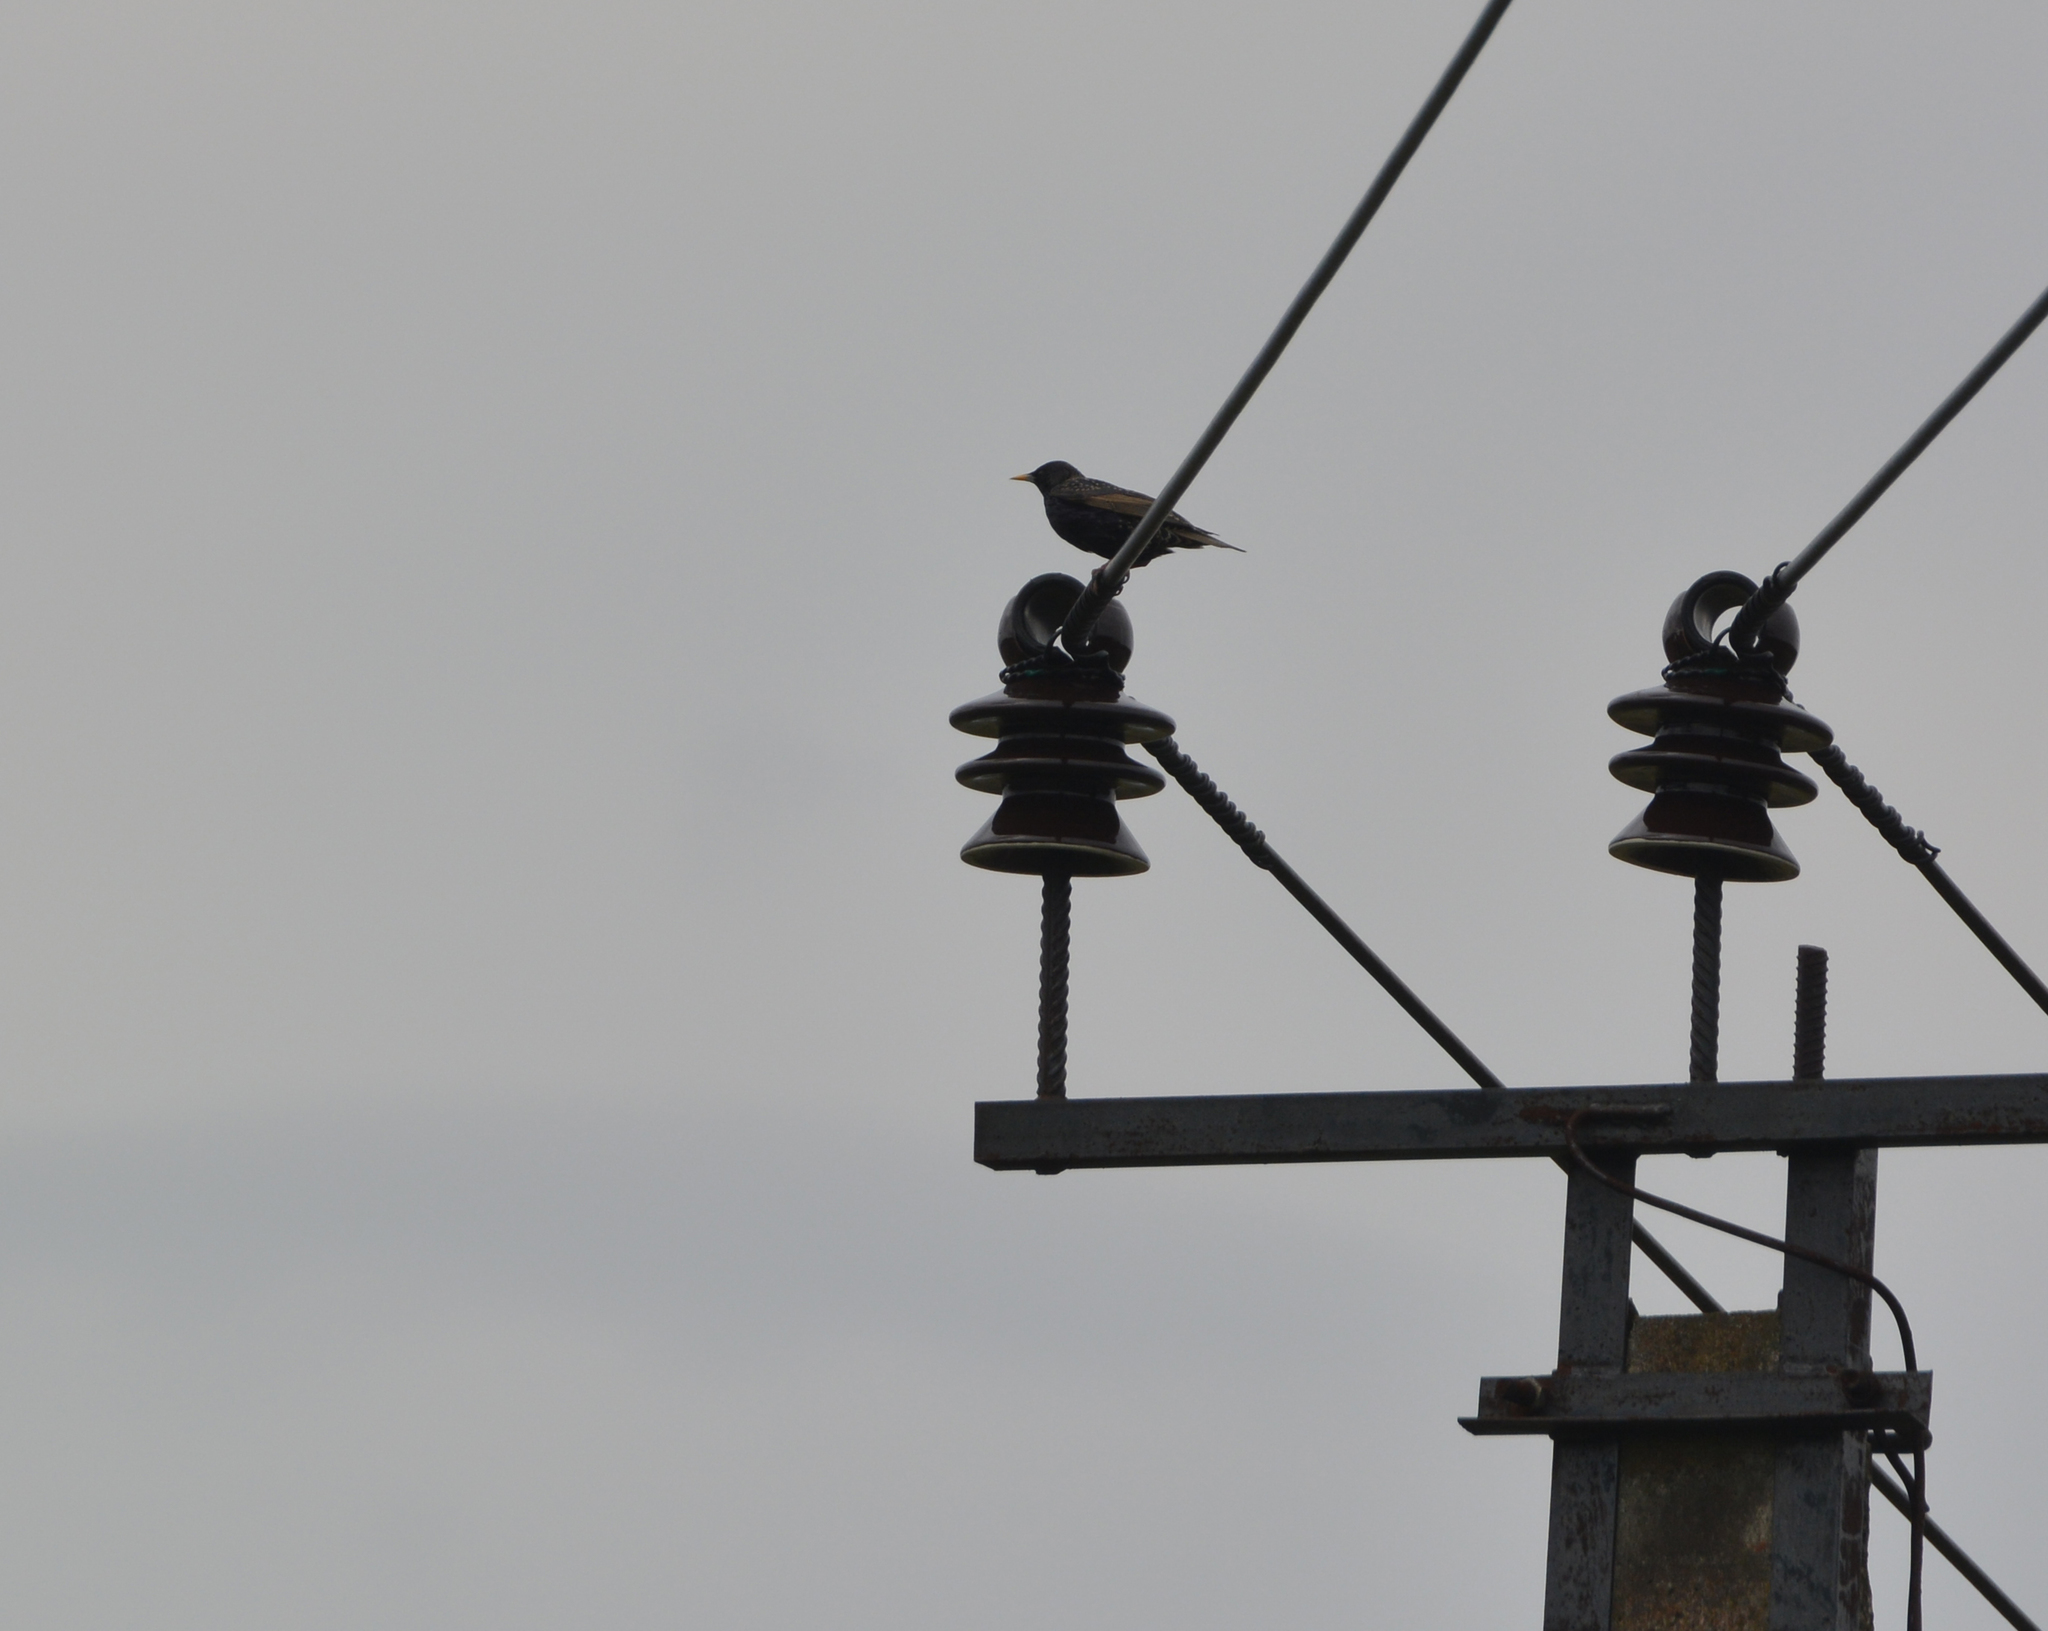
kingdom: Animalia
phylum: Chordata
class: Aves
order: Passeriformes
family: Sturnidae
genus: Sturnus
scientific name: Sturnus vulgaris
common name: Common starling
